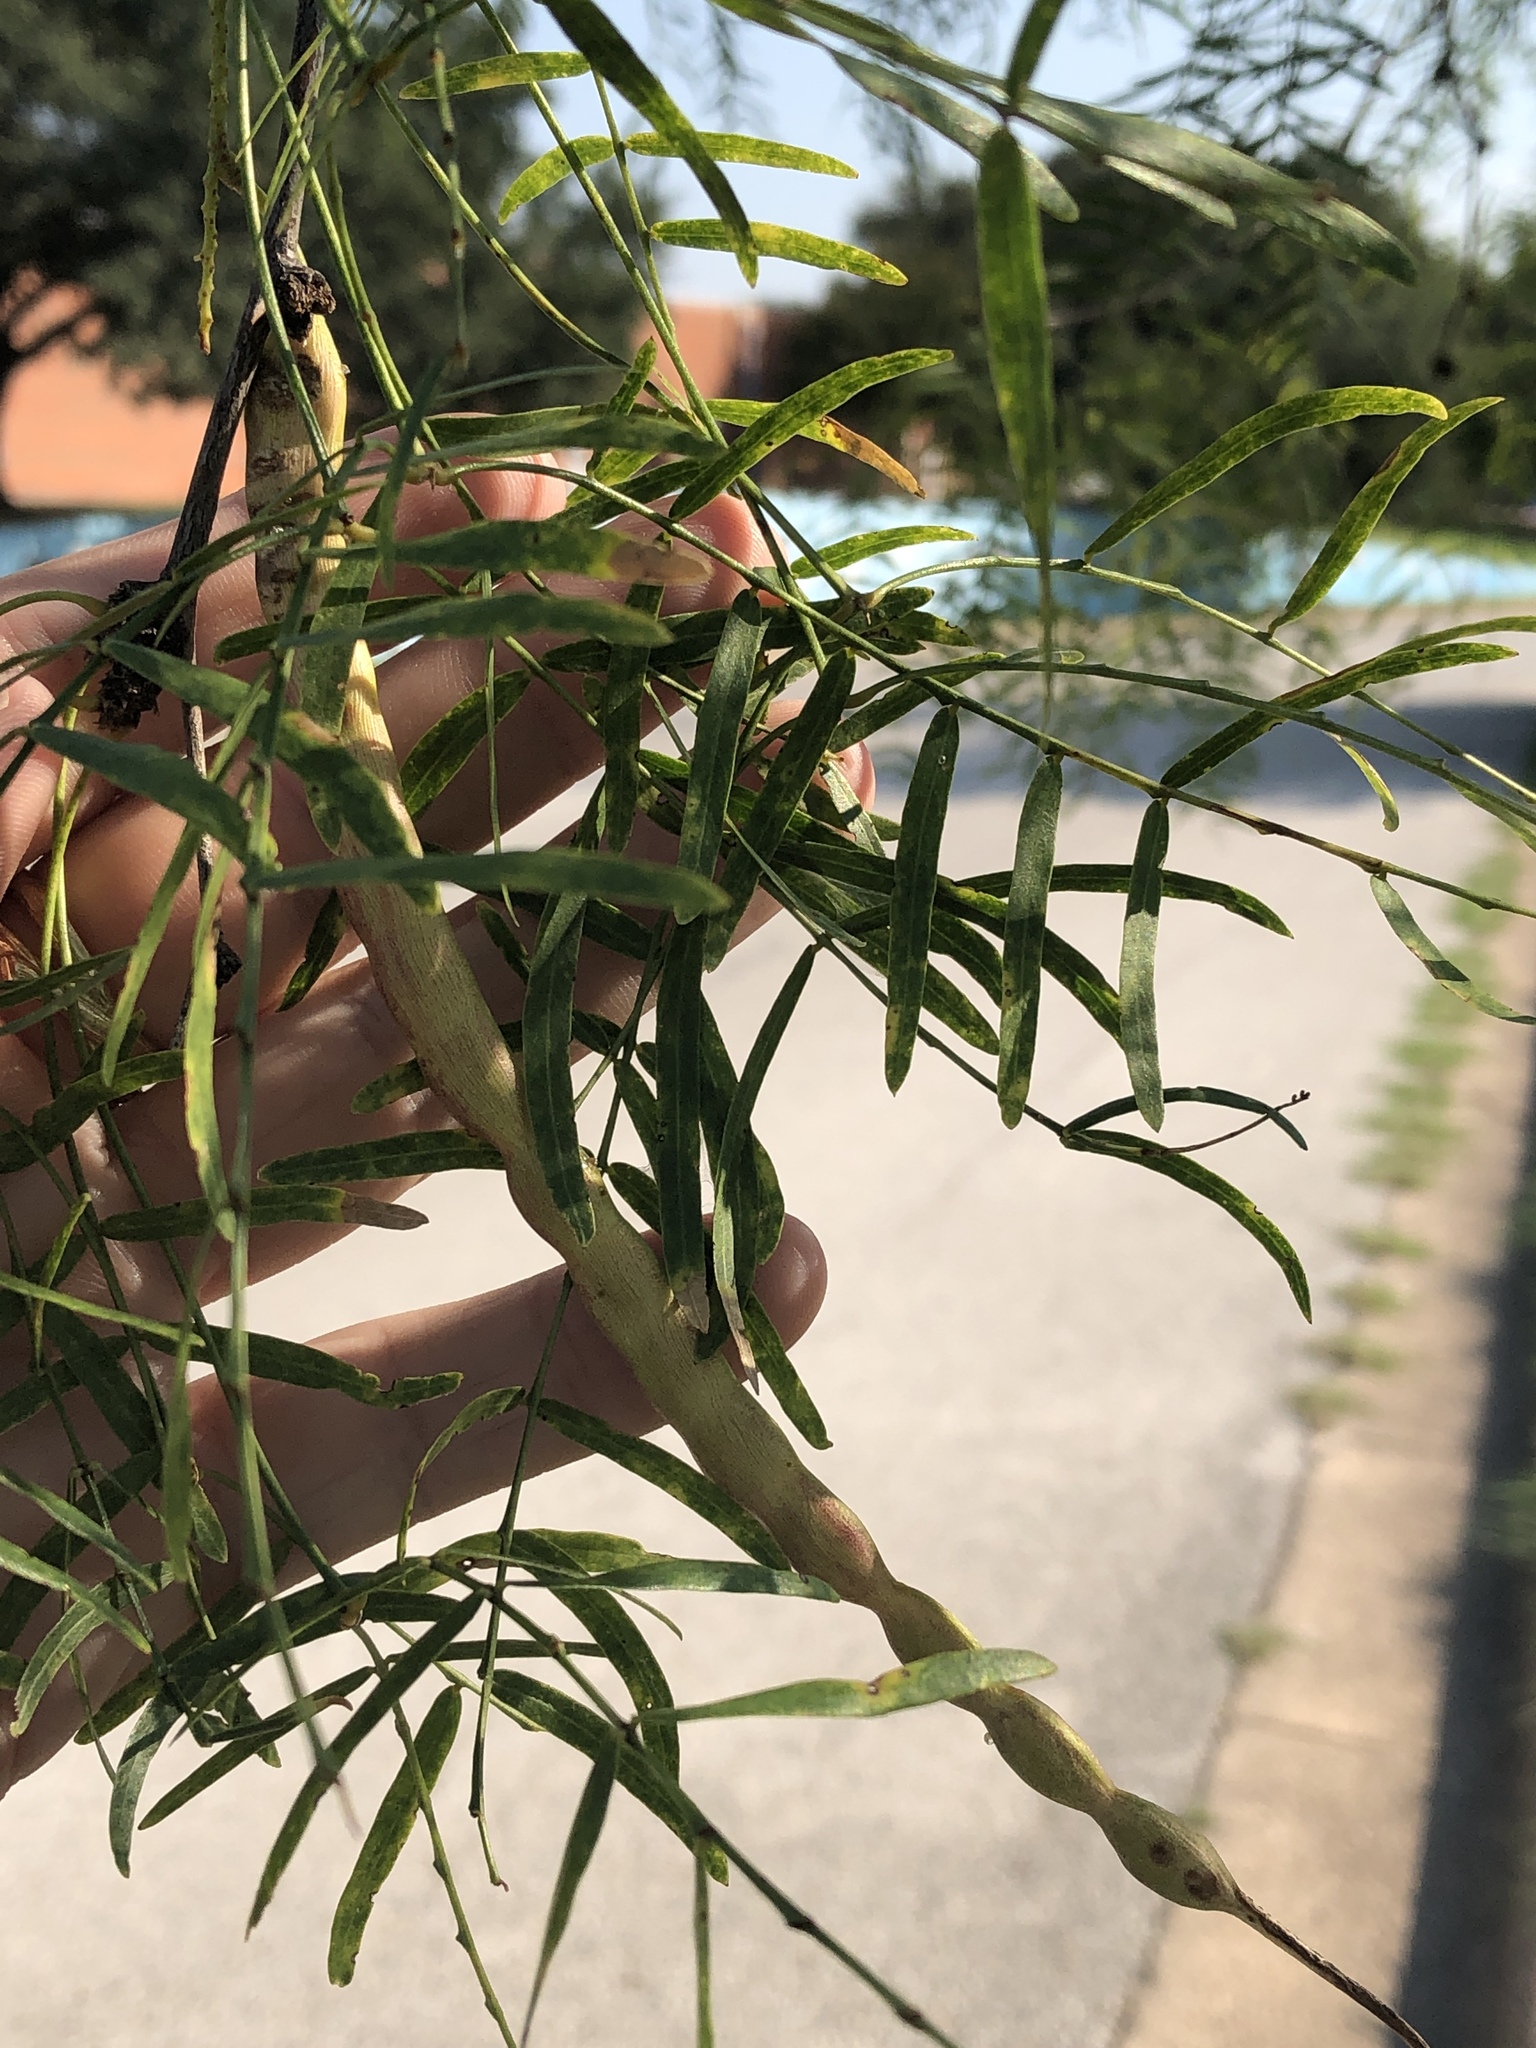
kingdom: Plantae
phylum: Tracheophyta
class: Magnoliopsida
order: Fabales
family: Fabaceae
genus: Prosopis
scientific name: Prosopis glandulosa
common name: Honey mesquite
